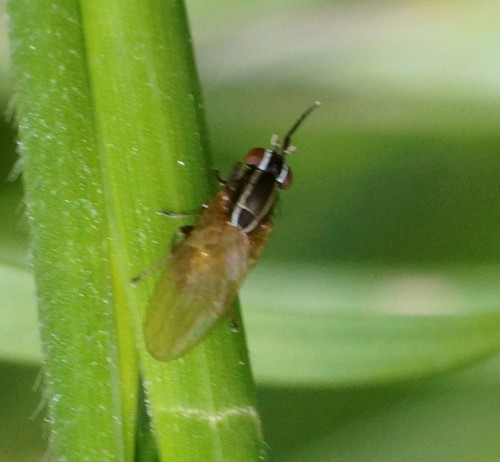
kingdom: Animalia
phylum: Arthropoda
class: Insecta
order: Diptera
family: Lauxaniidae
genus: Poecilohetaerus
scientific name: Poecilohetaerus
